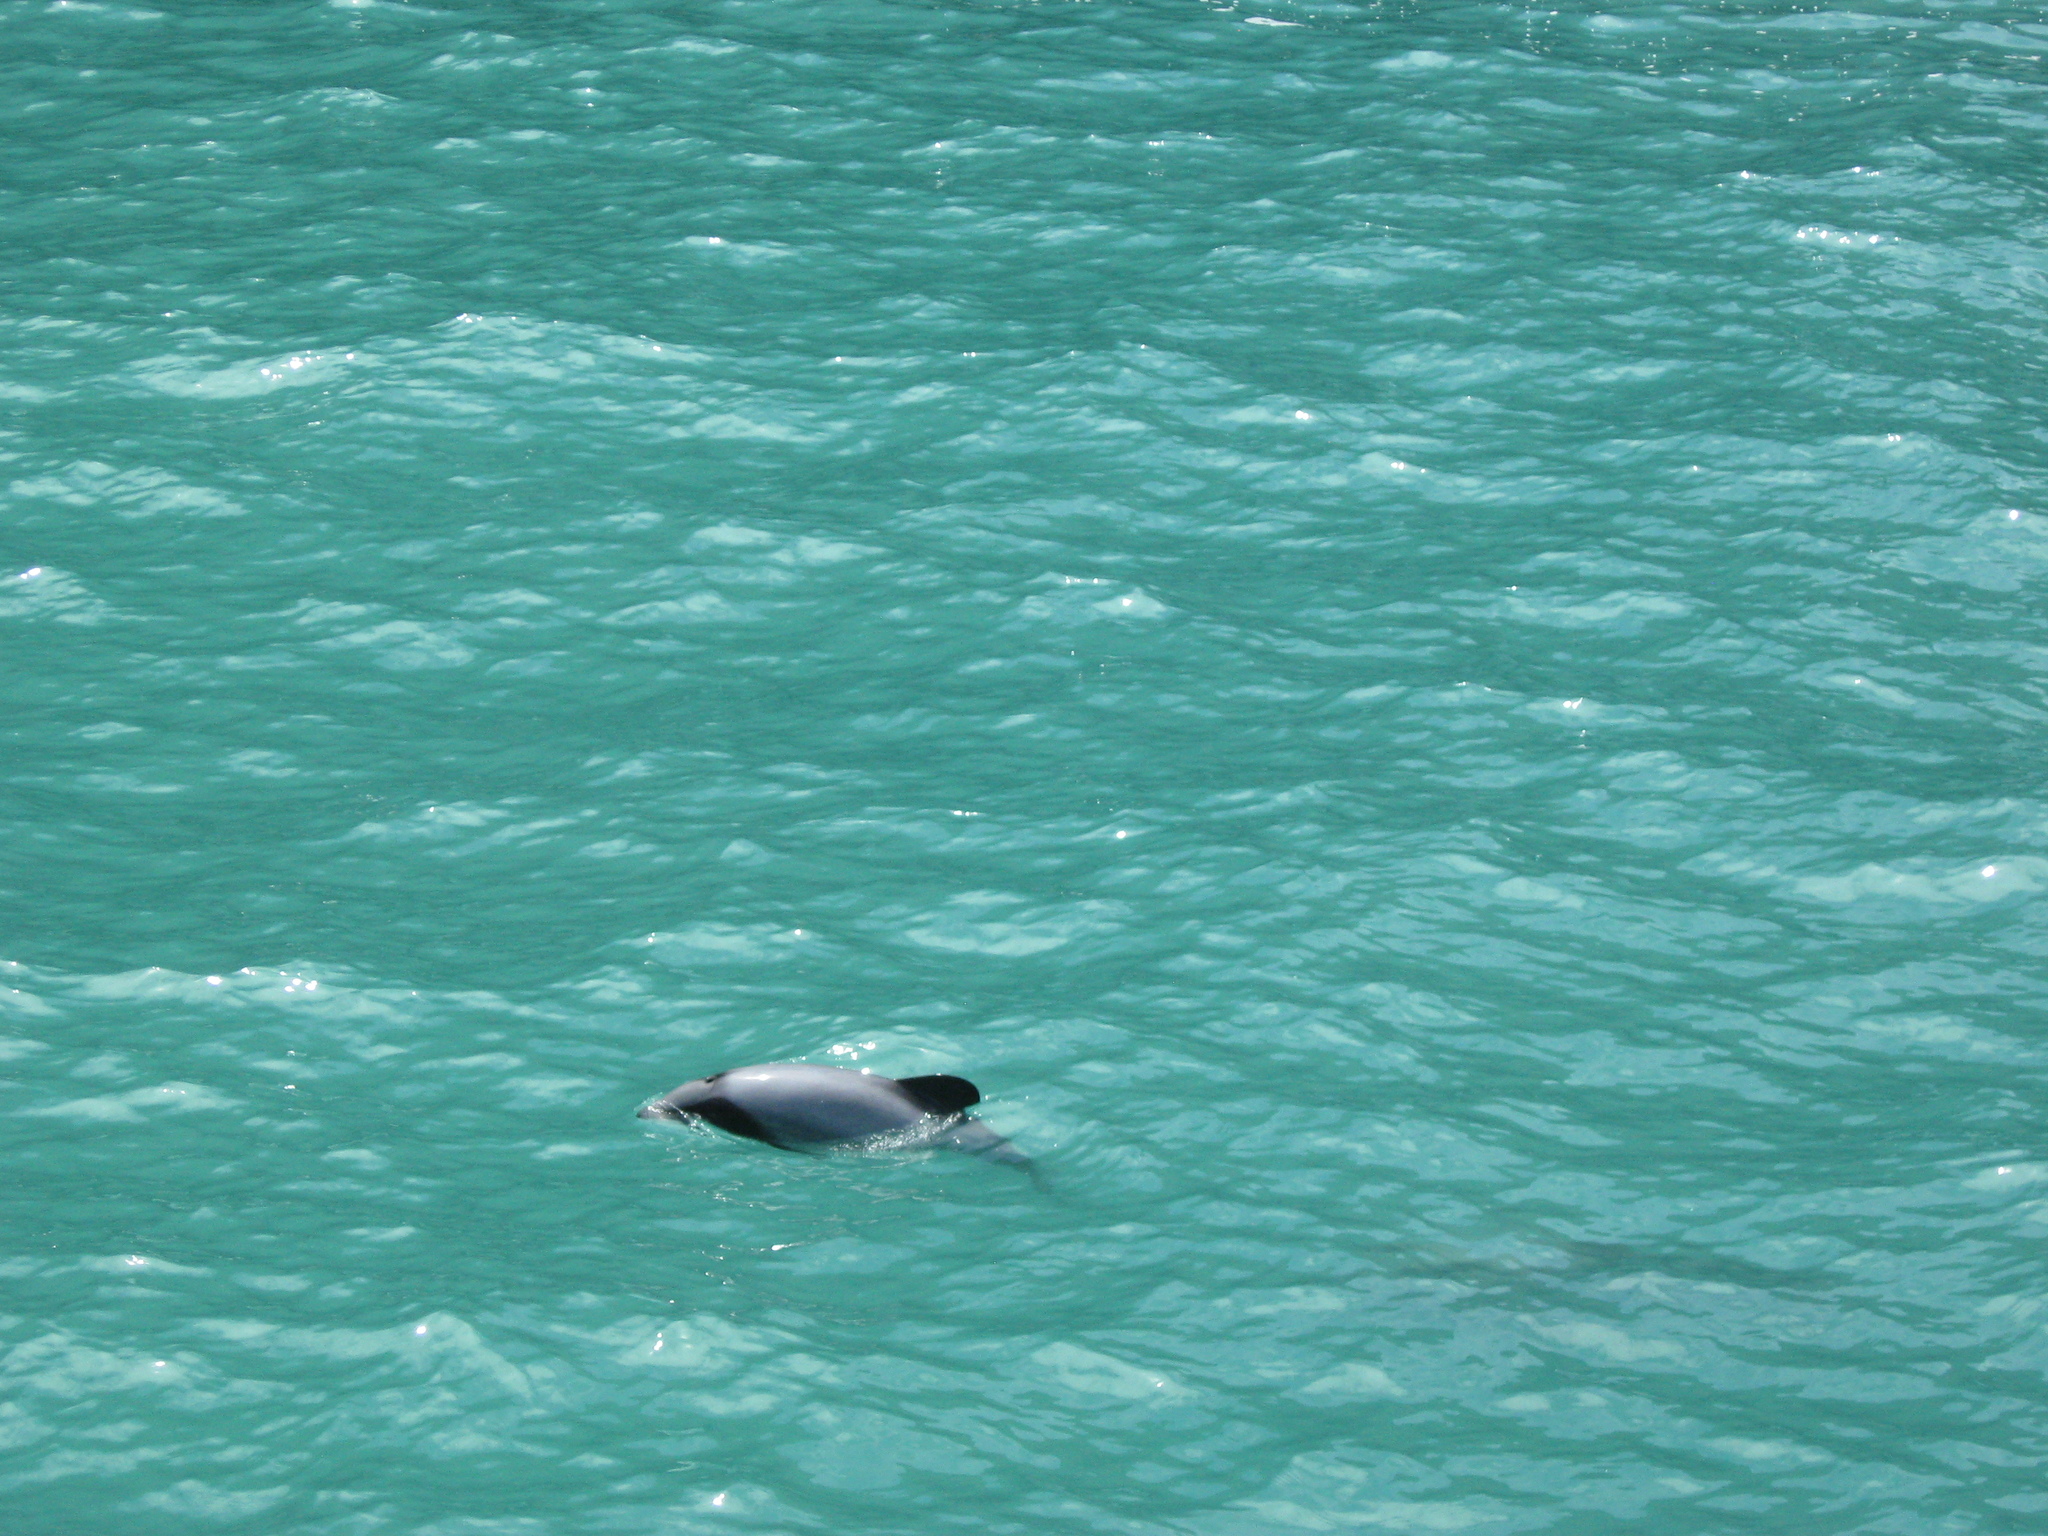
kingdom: Animalia
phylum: Chordata
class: Mammalia
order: Cetacea
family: Delphinidae
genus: Cephalorhynchus
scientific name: Cephalorhynchus hectori
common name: Hector's dolphin
